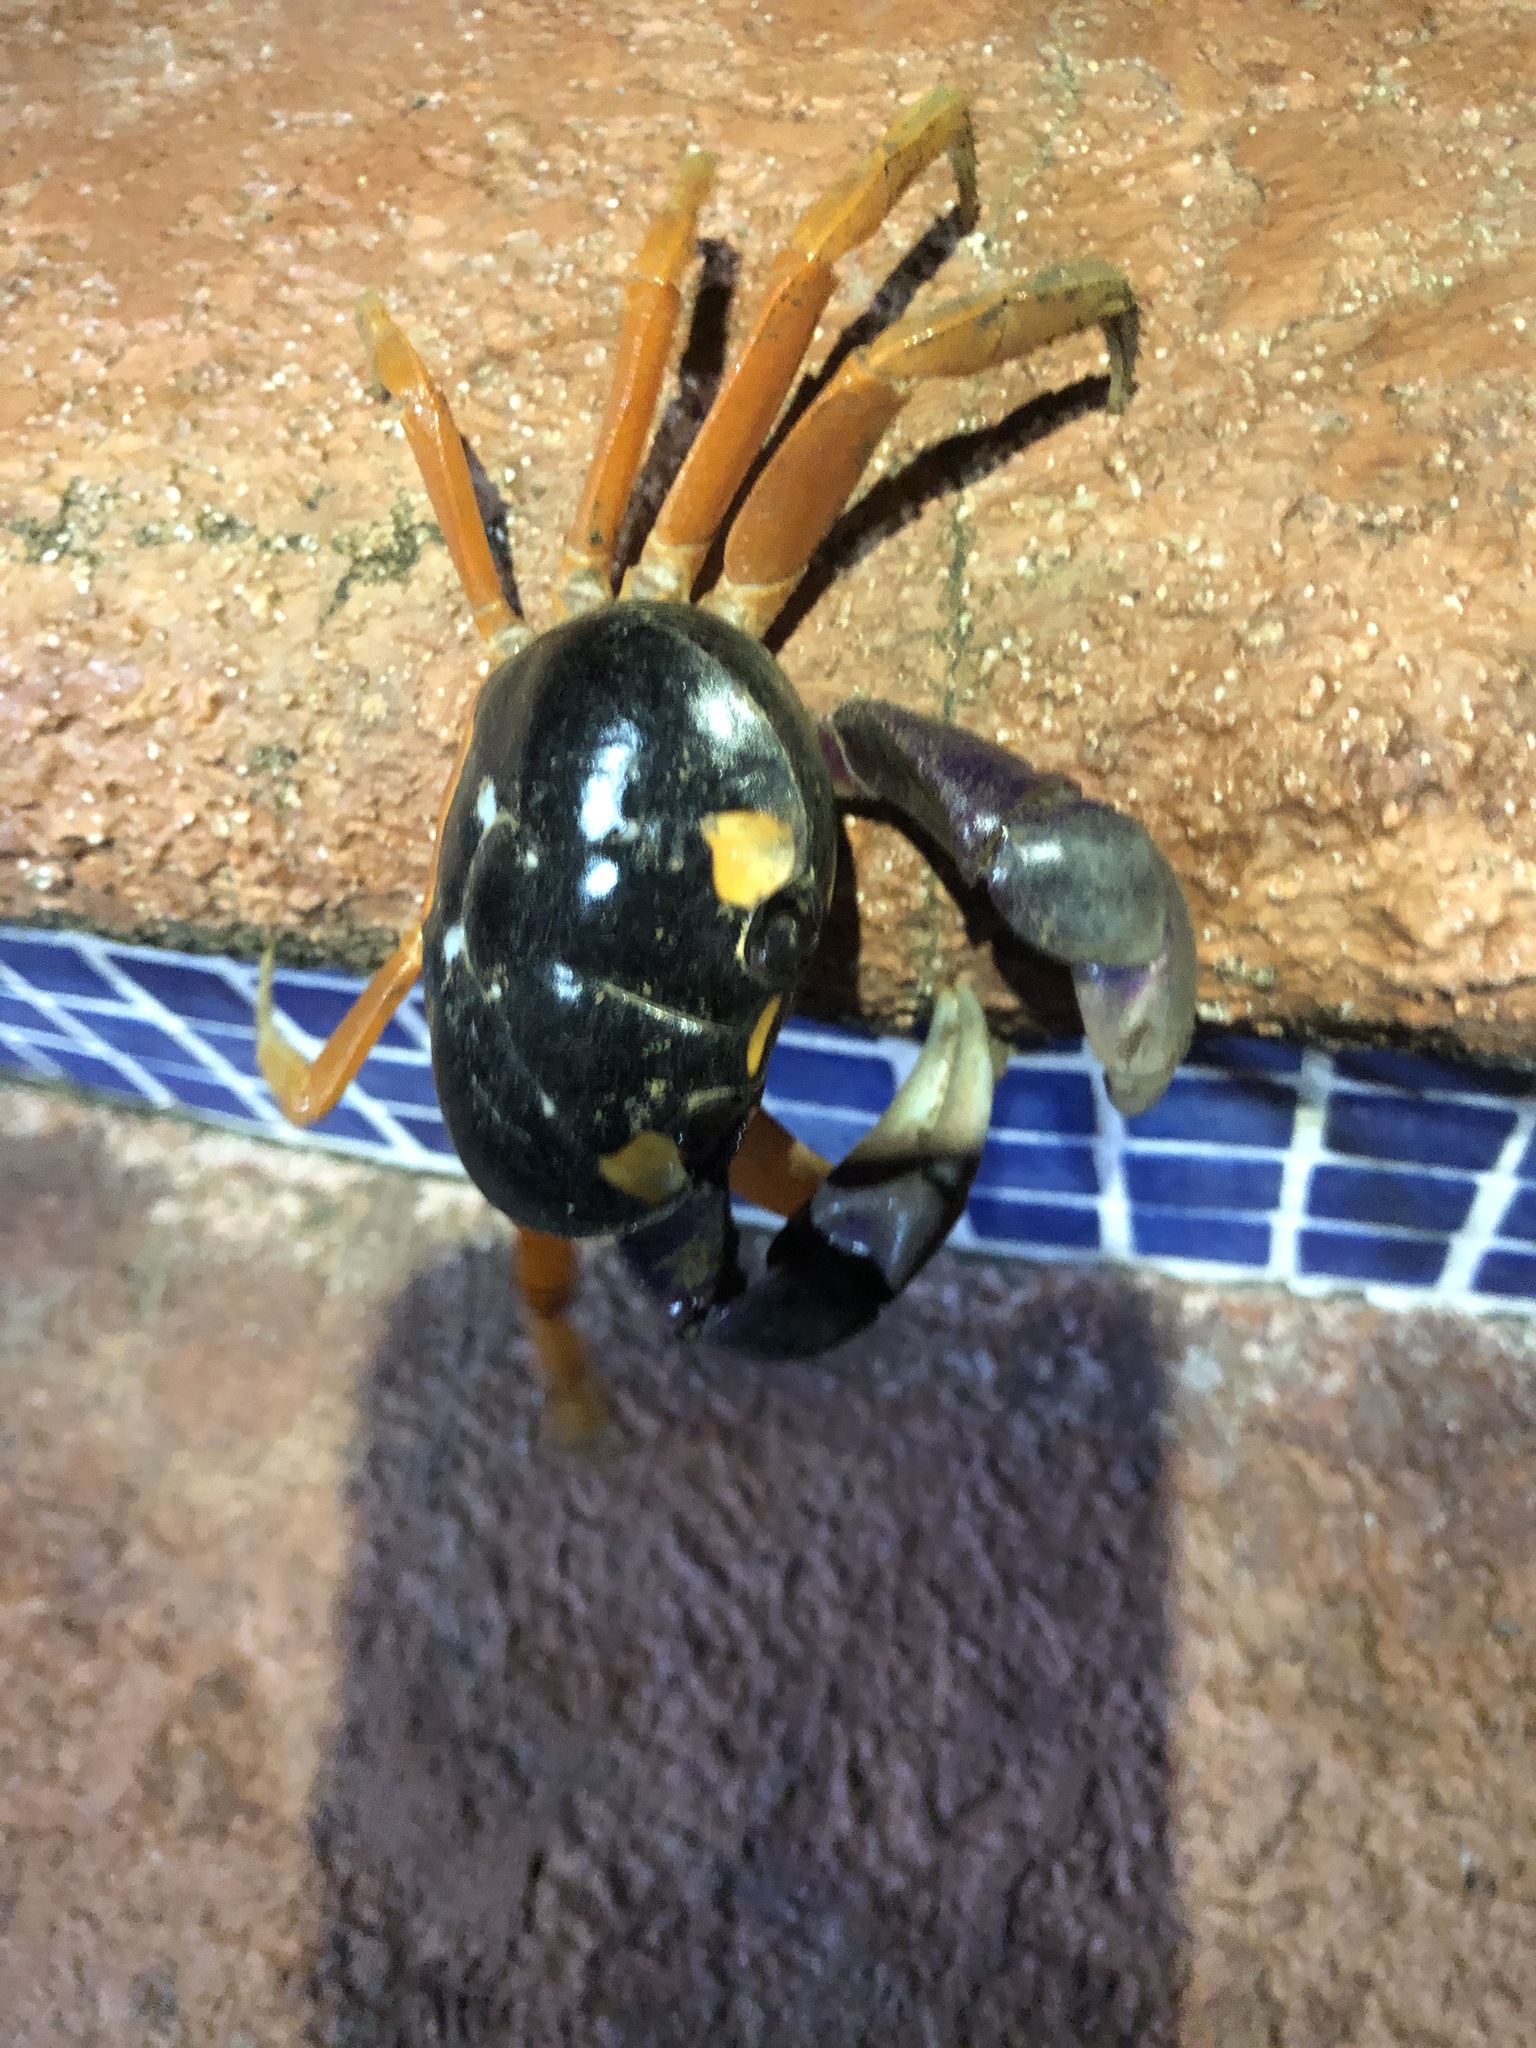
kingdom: Animalia
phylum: Arthropoda
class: Malacostraca
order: Decapoda
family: Gecarcinidae
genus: Gecarcinus
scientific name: Gecarcinus quadratus
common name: Halloween crab
